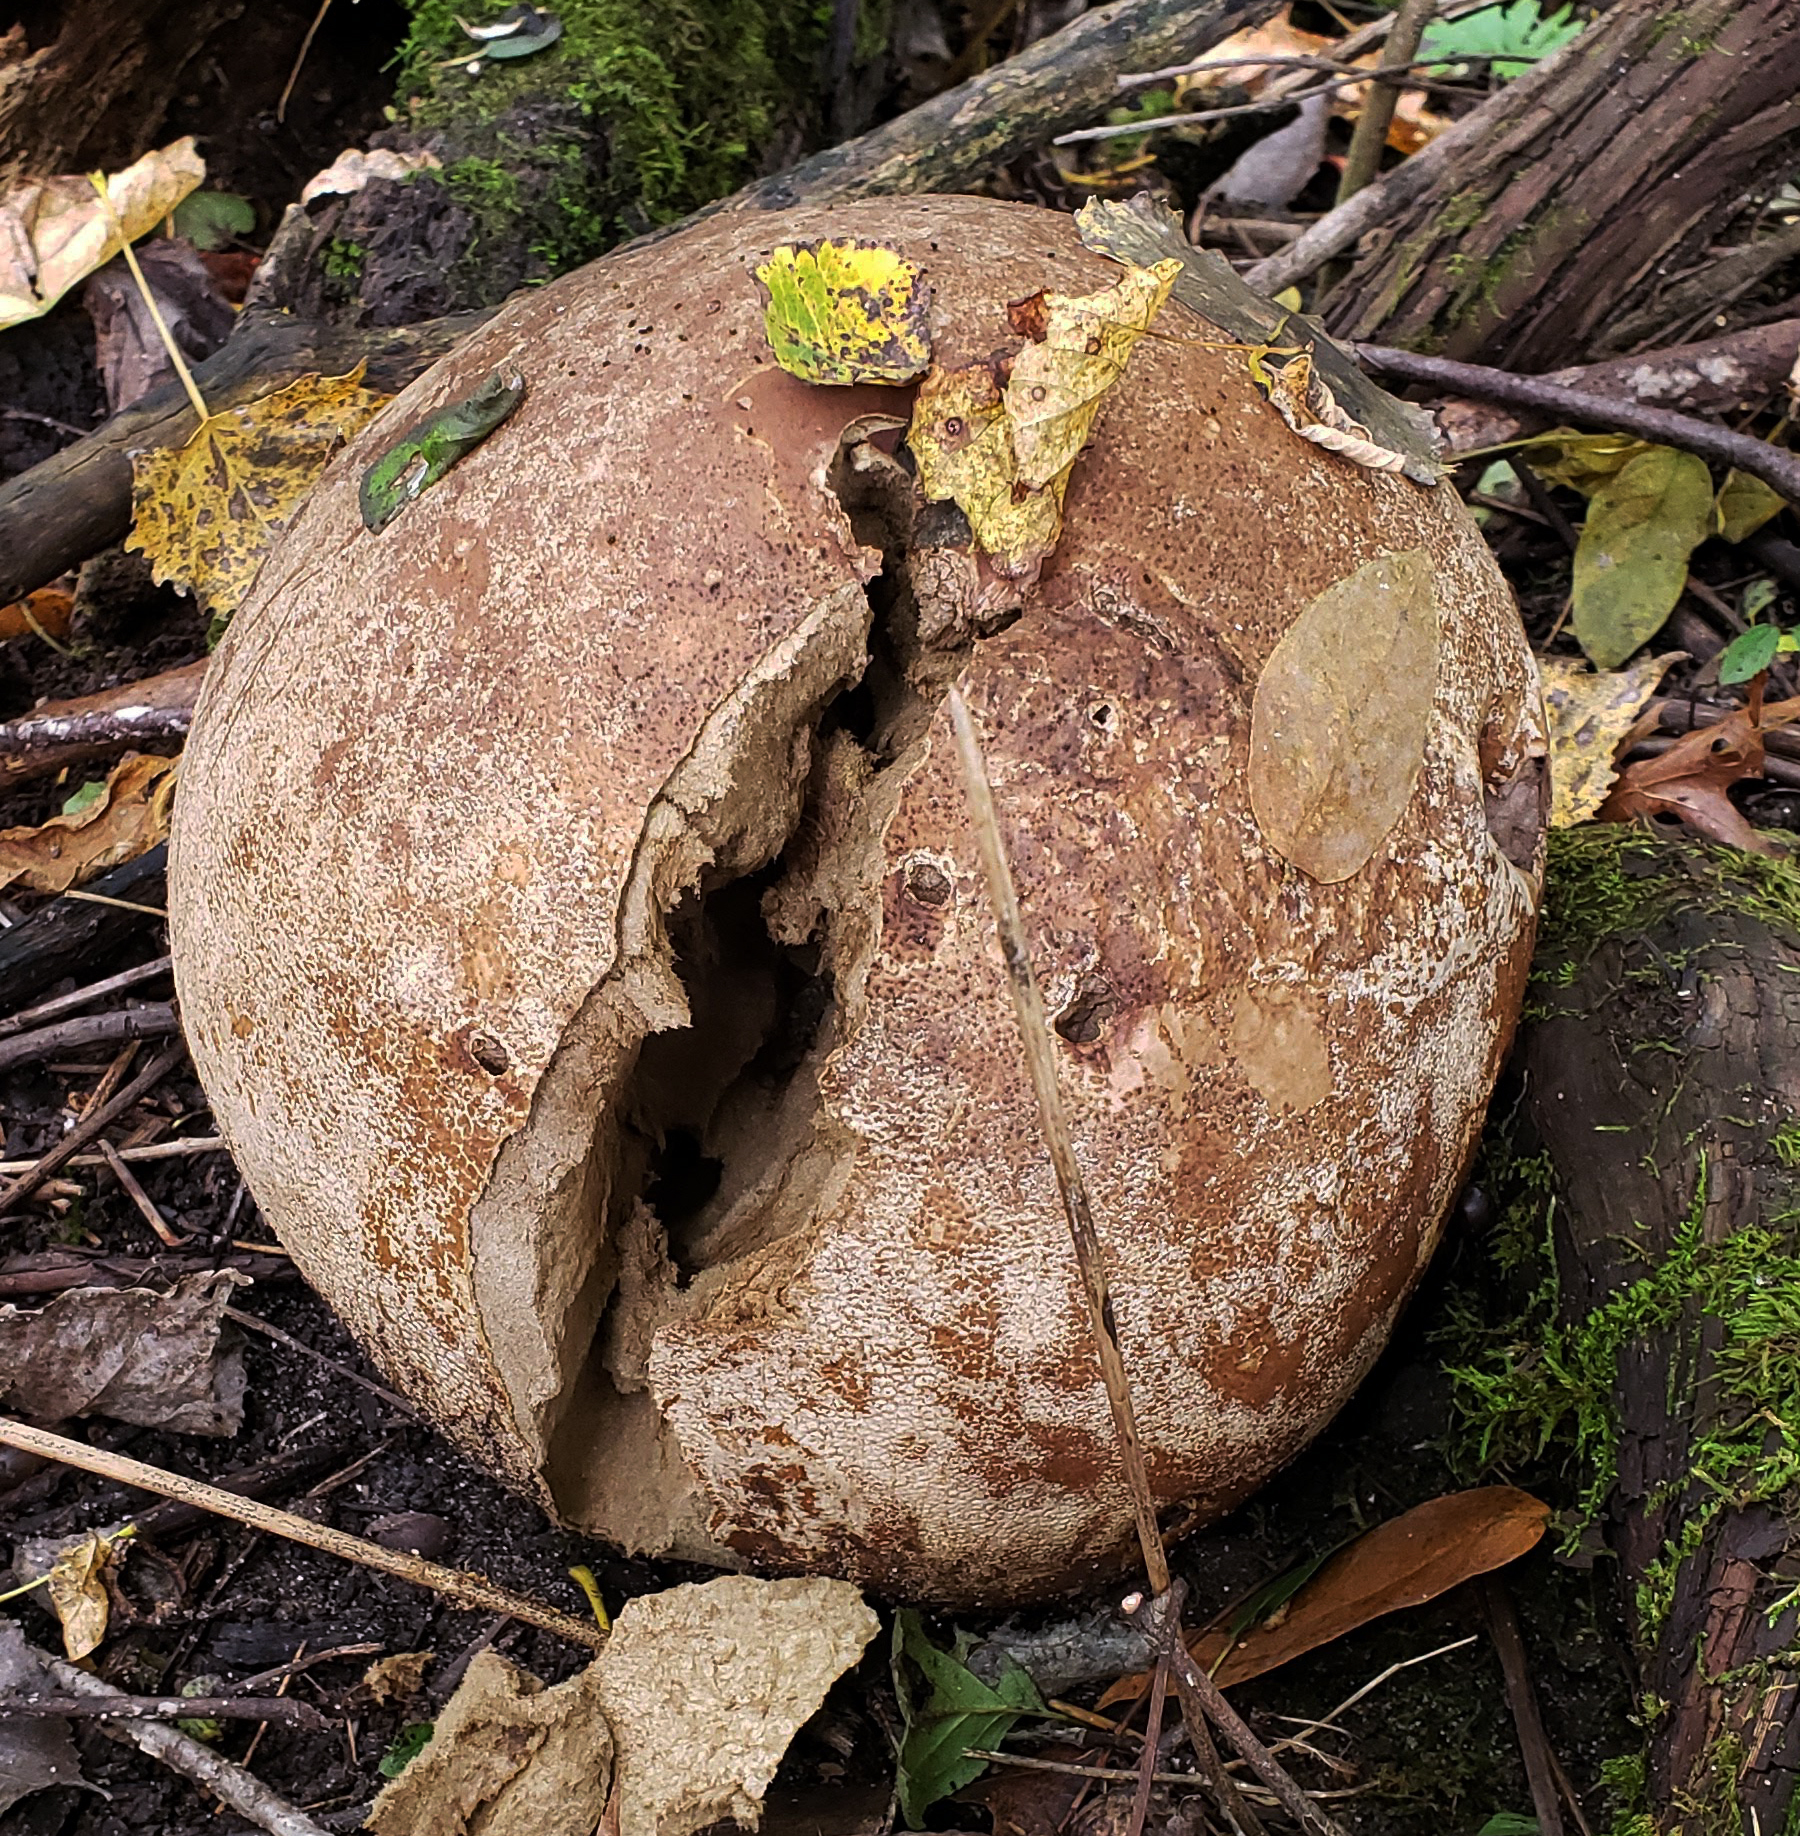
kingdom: Fungi
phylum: Basidiomycota
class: Agaricomycetes
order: Agaricales
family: Lycoperdaceae
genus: Calvatia
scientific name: Calvatia gigantea
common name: Giant puffball
